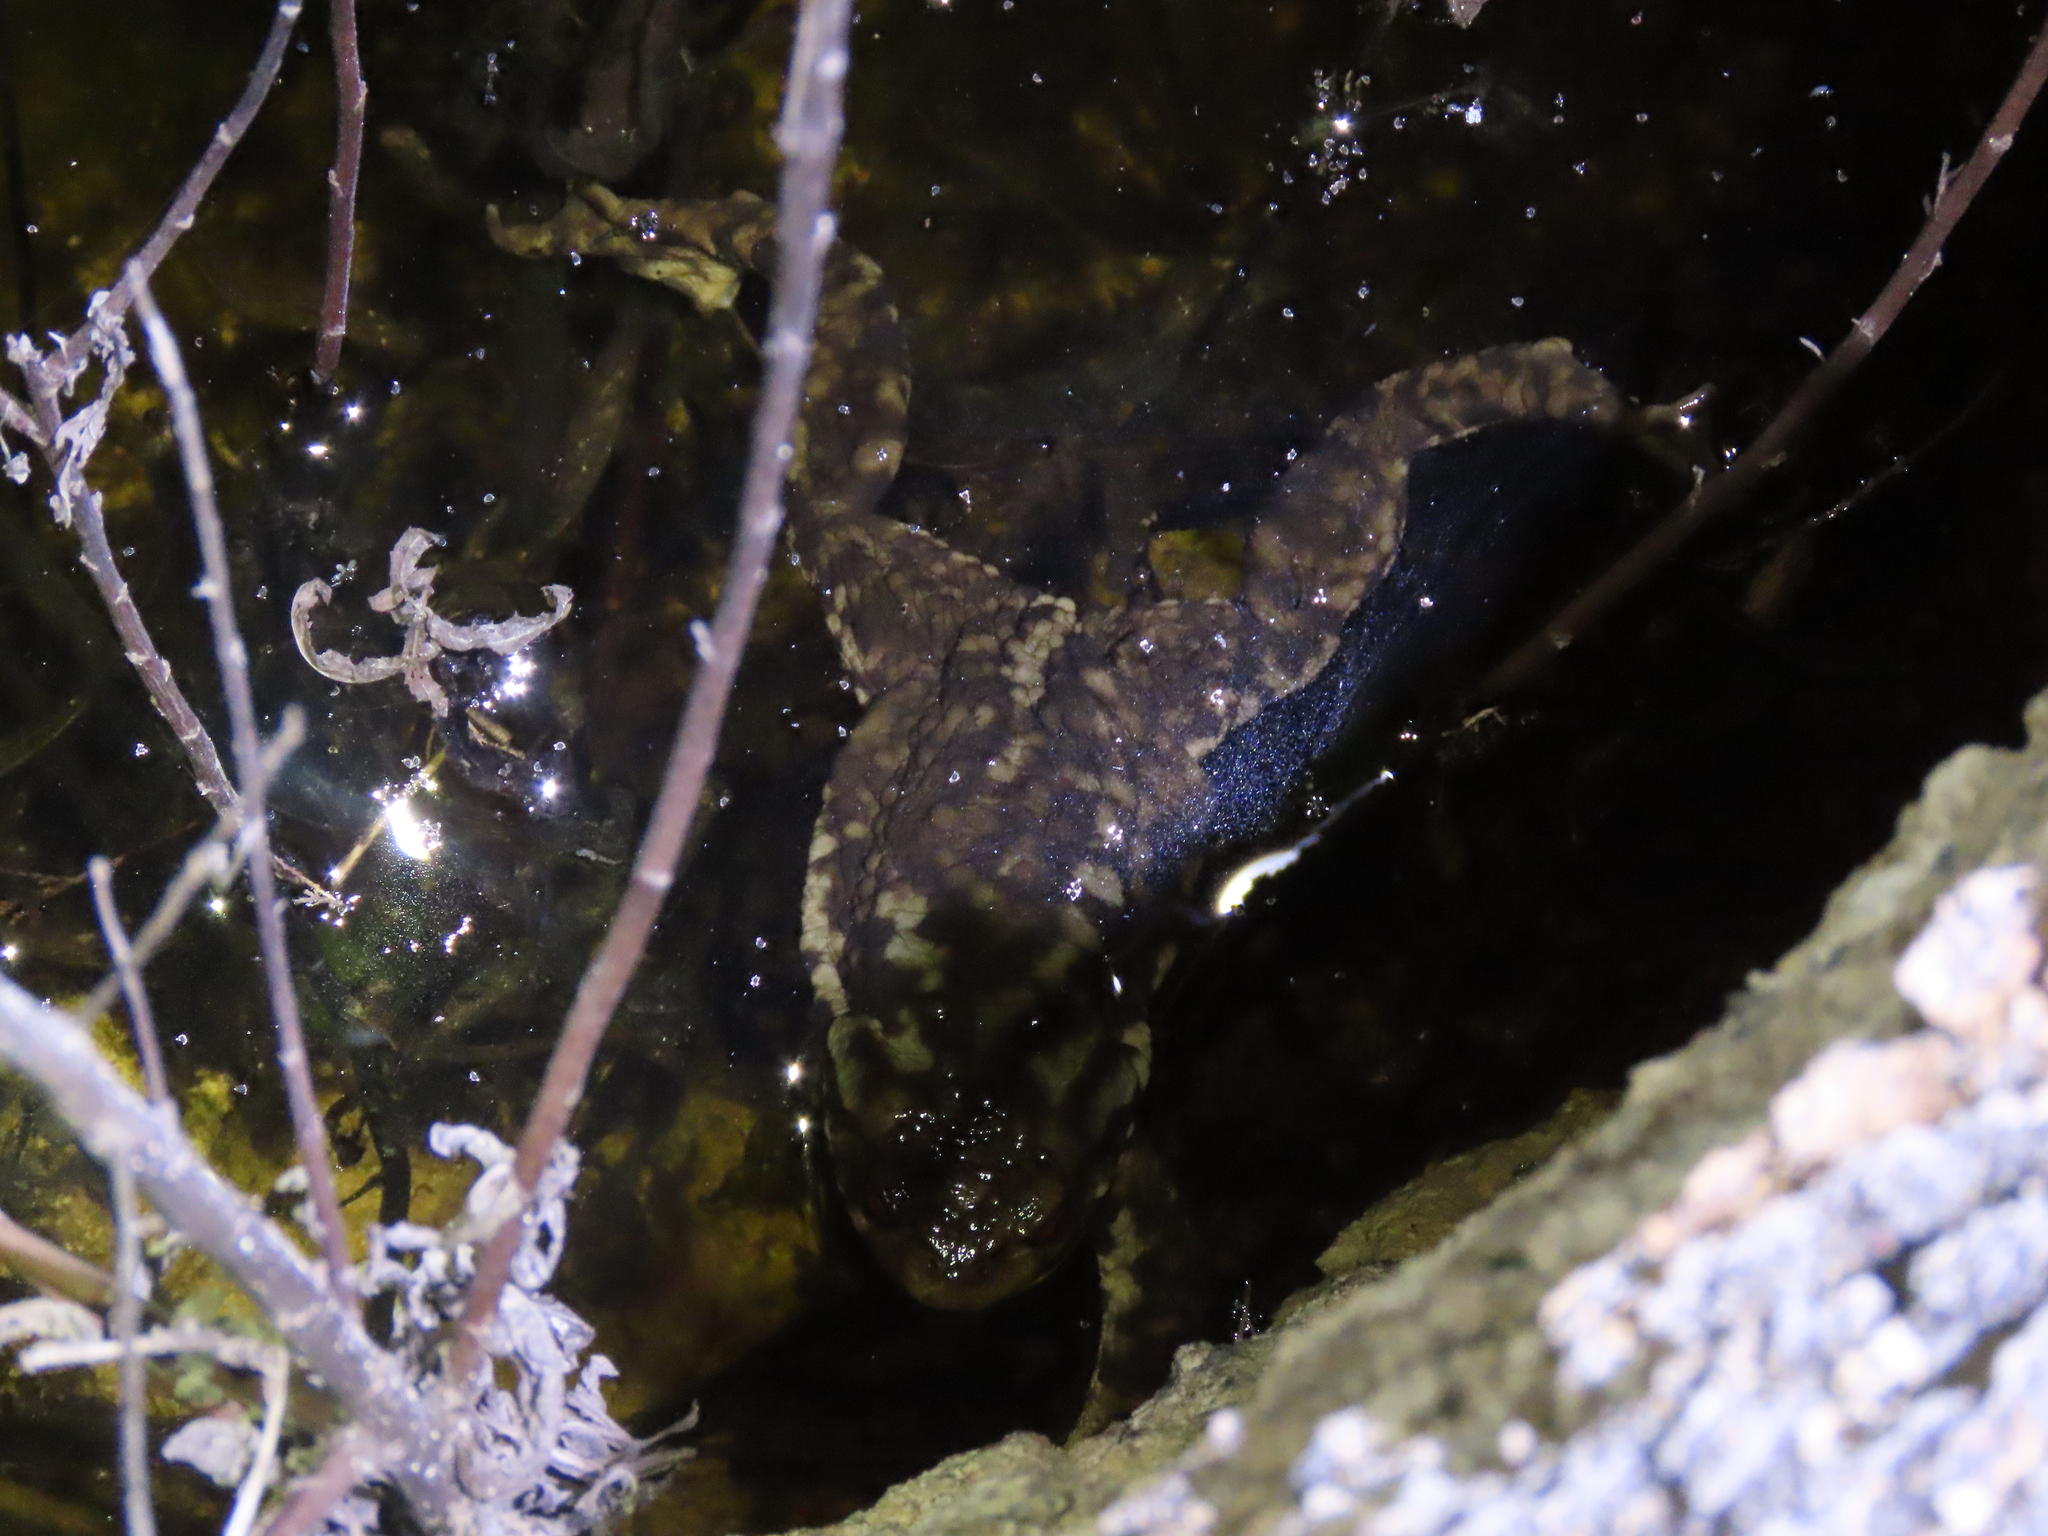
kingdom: Animalia
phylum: Chordata
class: Amphibia
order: Anura
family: Bufonidae
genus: Bufo
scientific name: Bufo spinosus
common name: Western common toad
